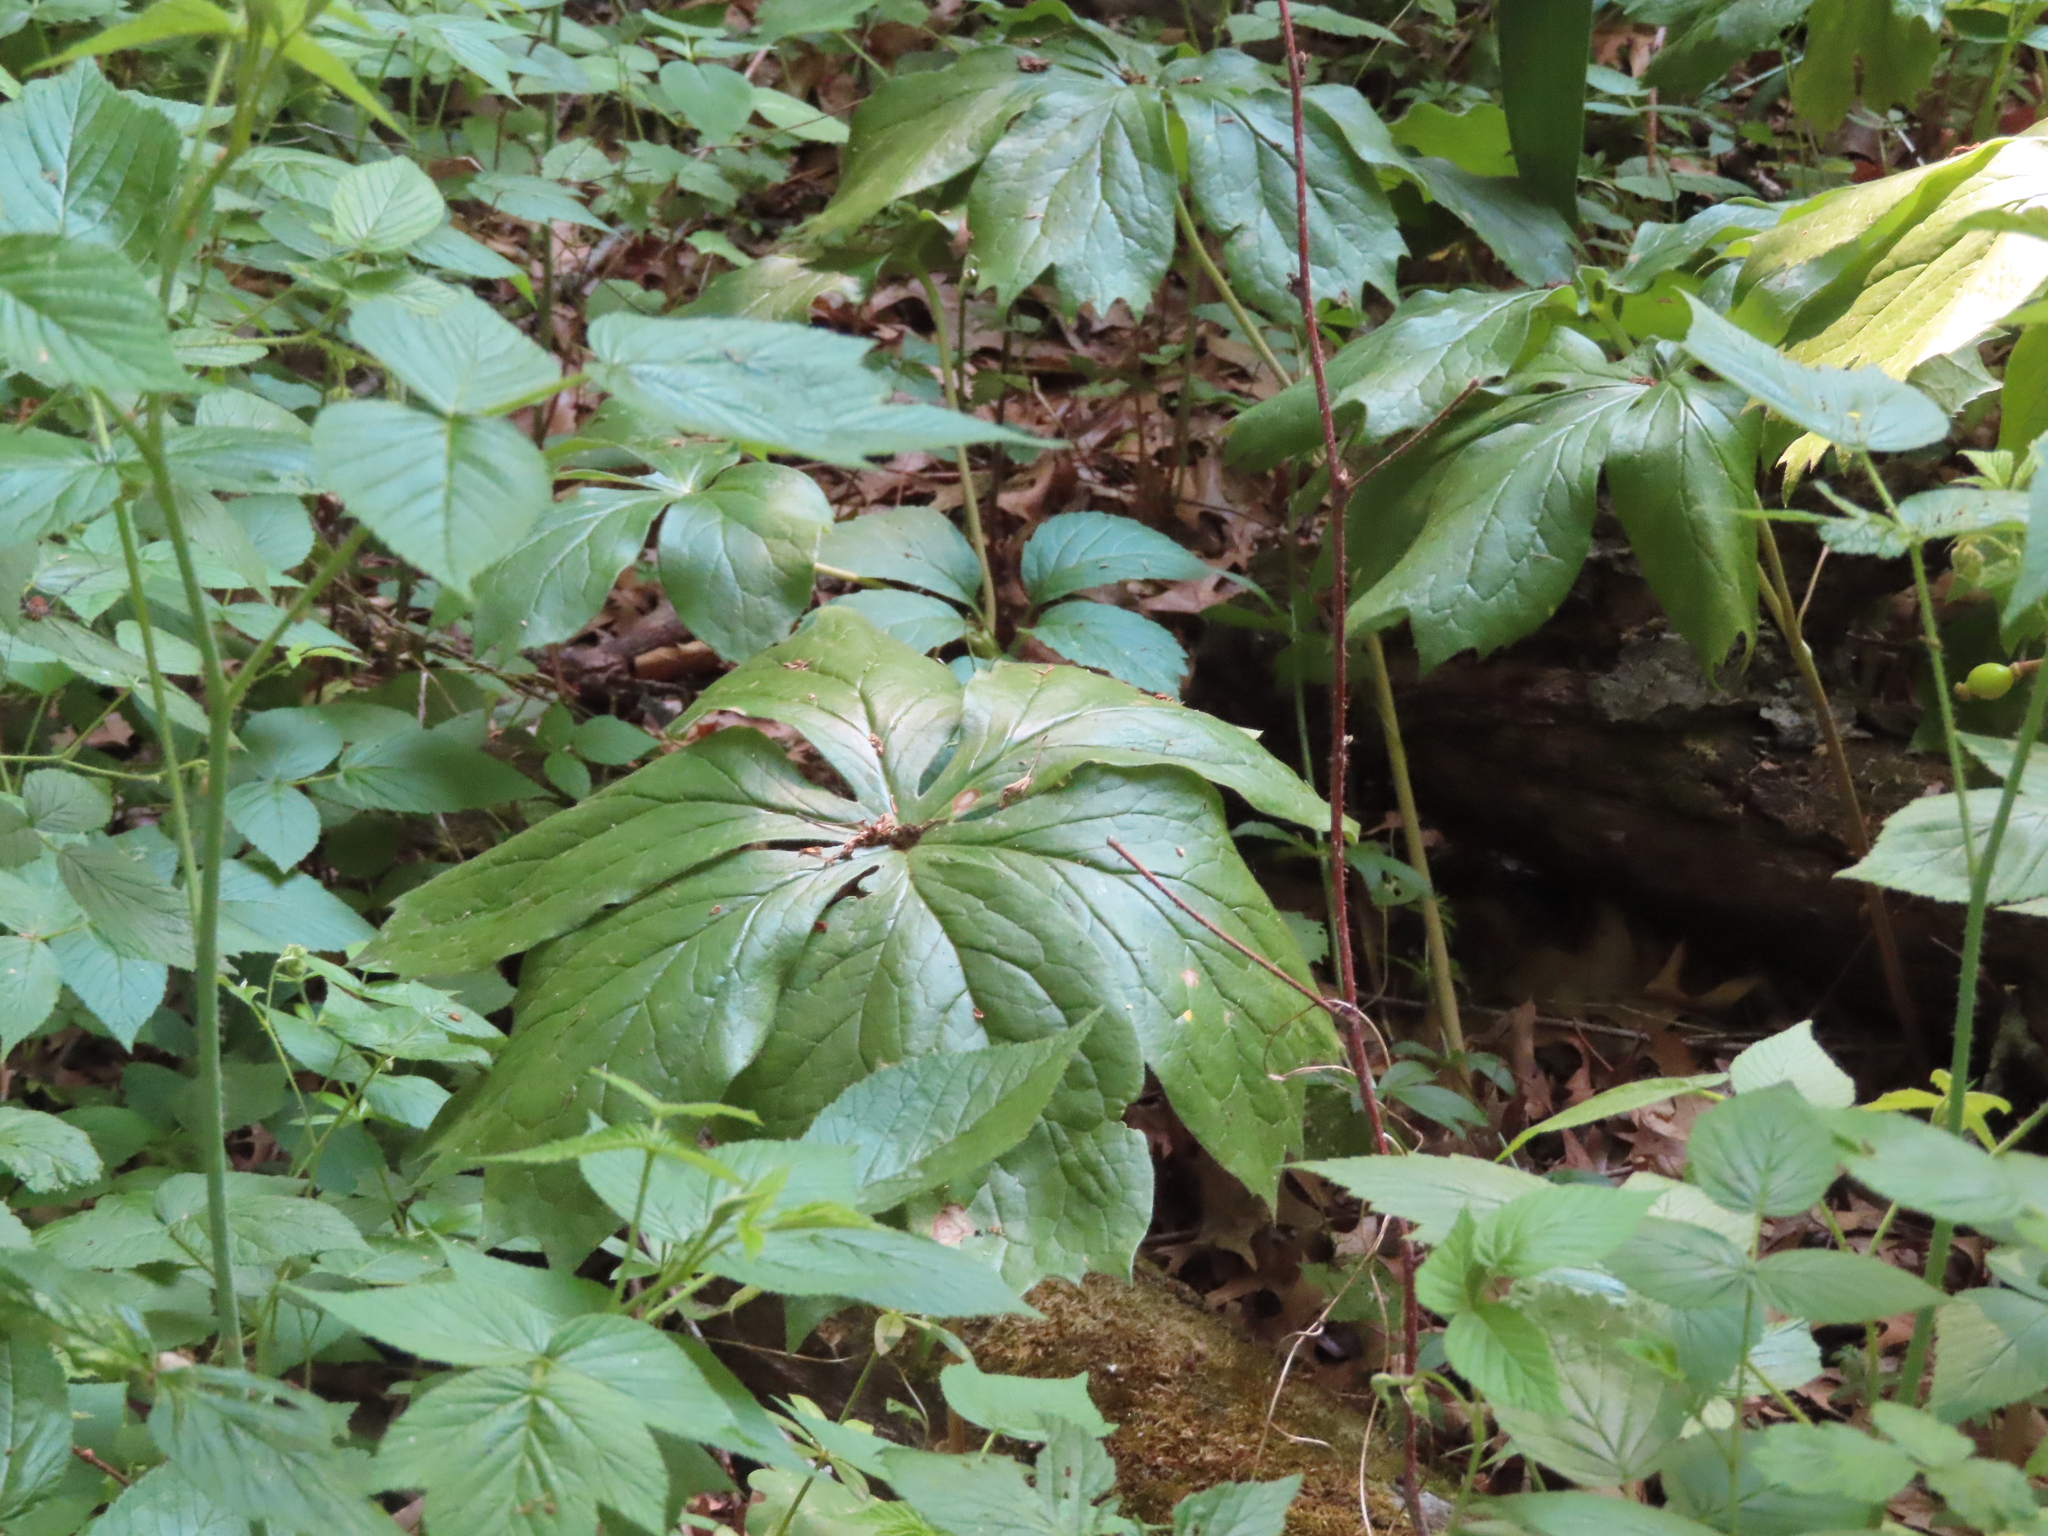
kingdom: Plantae
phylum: Tracheophyta
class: Magnoliopsida
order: Ranunculales
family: Berberidaceae
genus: Podophyllum
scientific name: Podophyllum peltatum
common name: Wild mandrake
